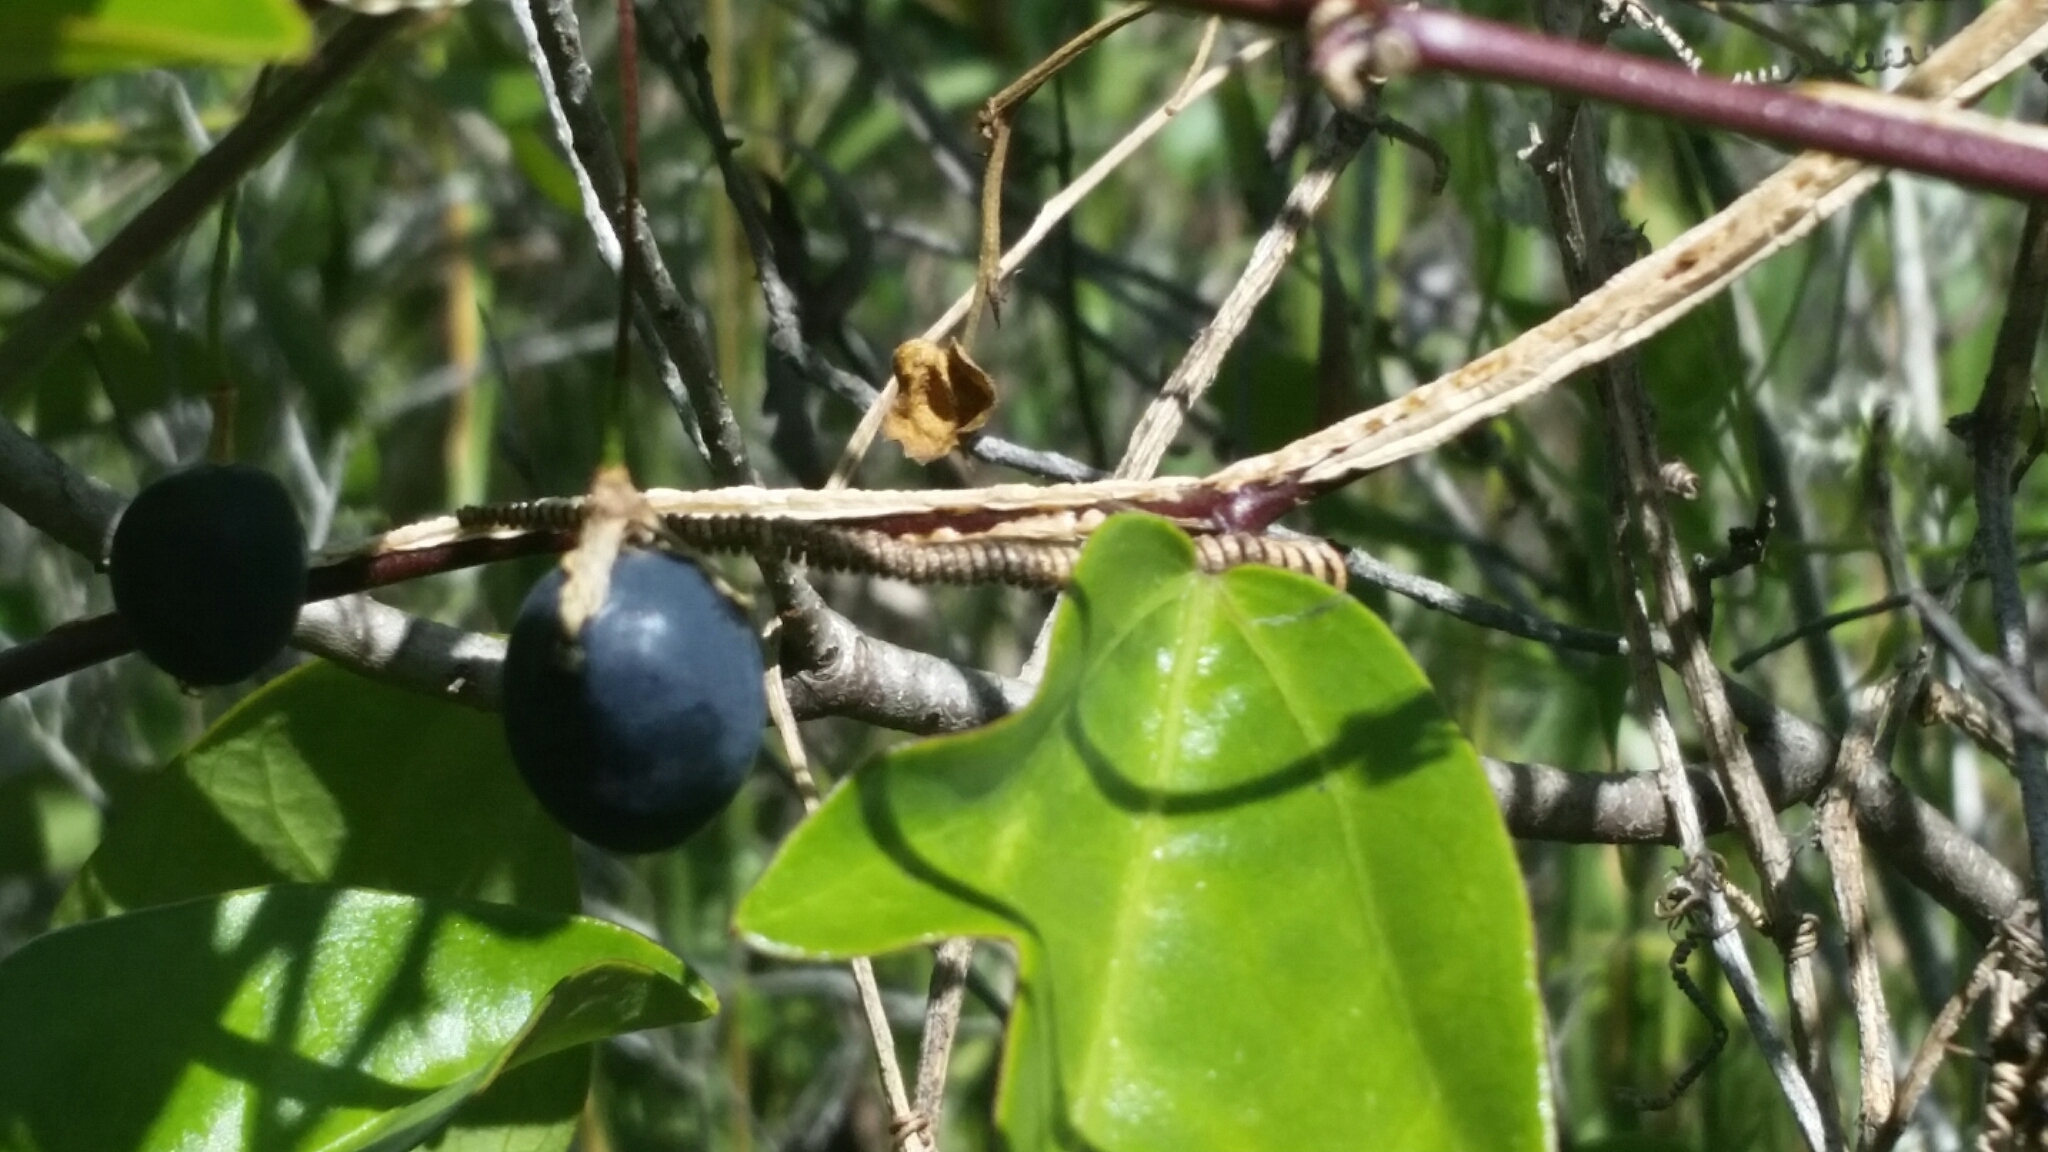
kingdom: Plantae
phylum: Tracheophyta
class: Magnoliopsida
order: Malpighiales
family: Passifloraceae
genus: Passiflora
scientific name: Passiflora pallida
